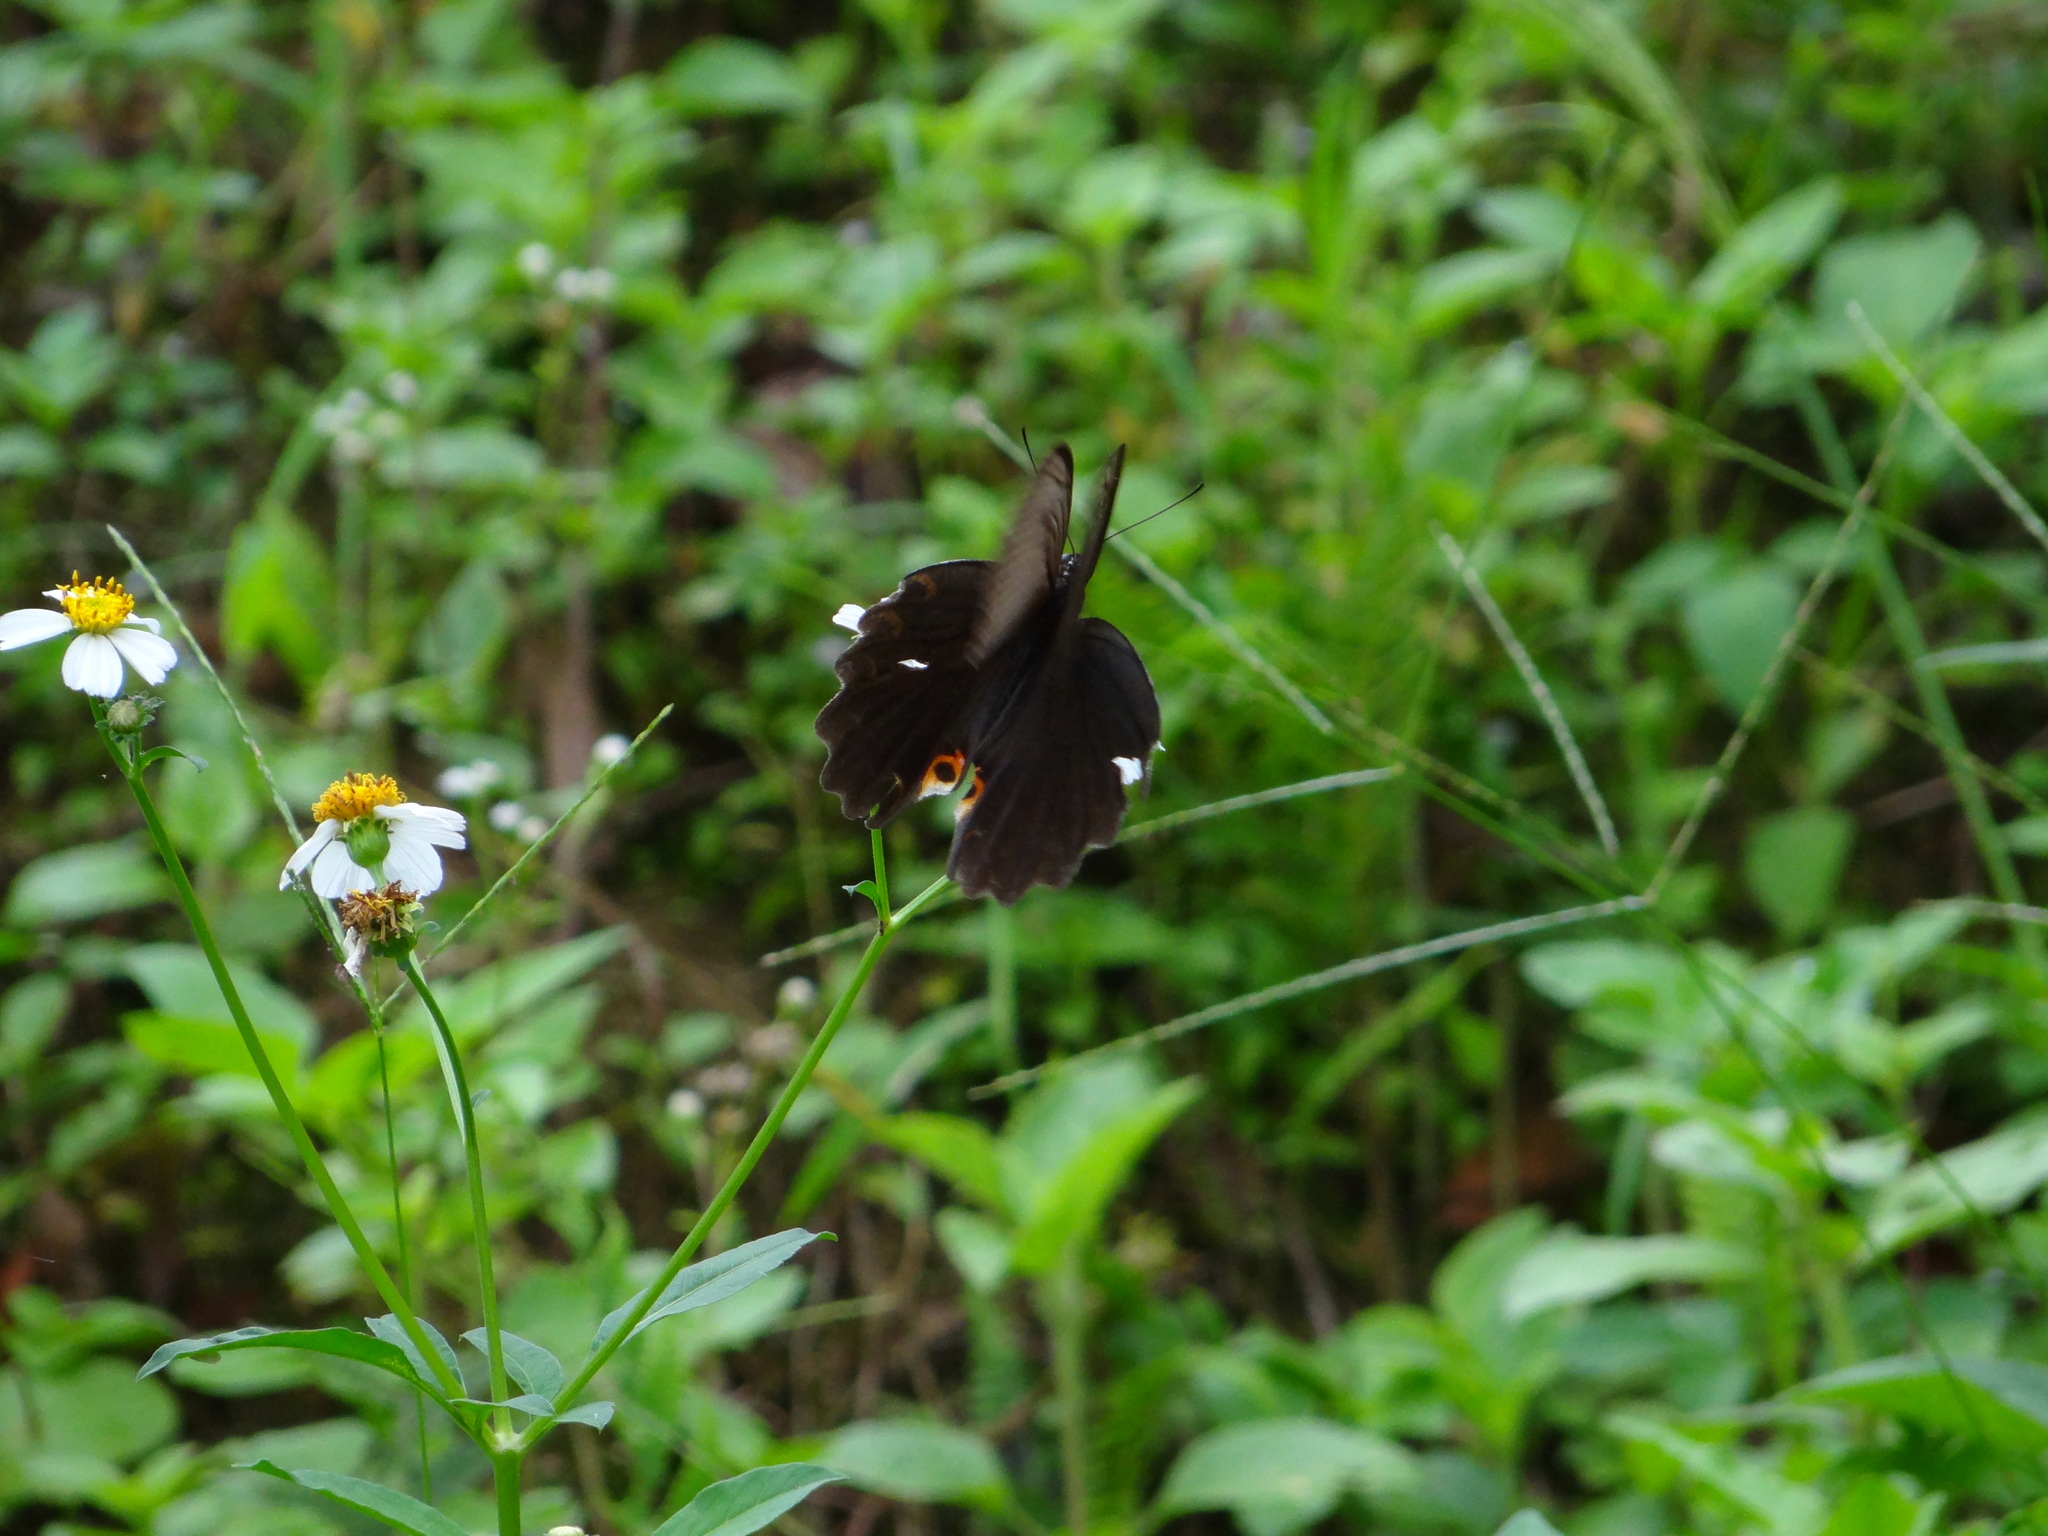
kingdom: Animalia
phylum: Arthropoda
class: Insecta
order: Lepidoptera
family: Papilionidae
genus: Papilio
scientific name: Papilio protenor
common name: Spangle
